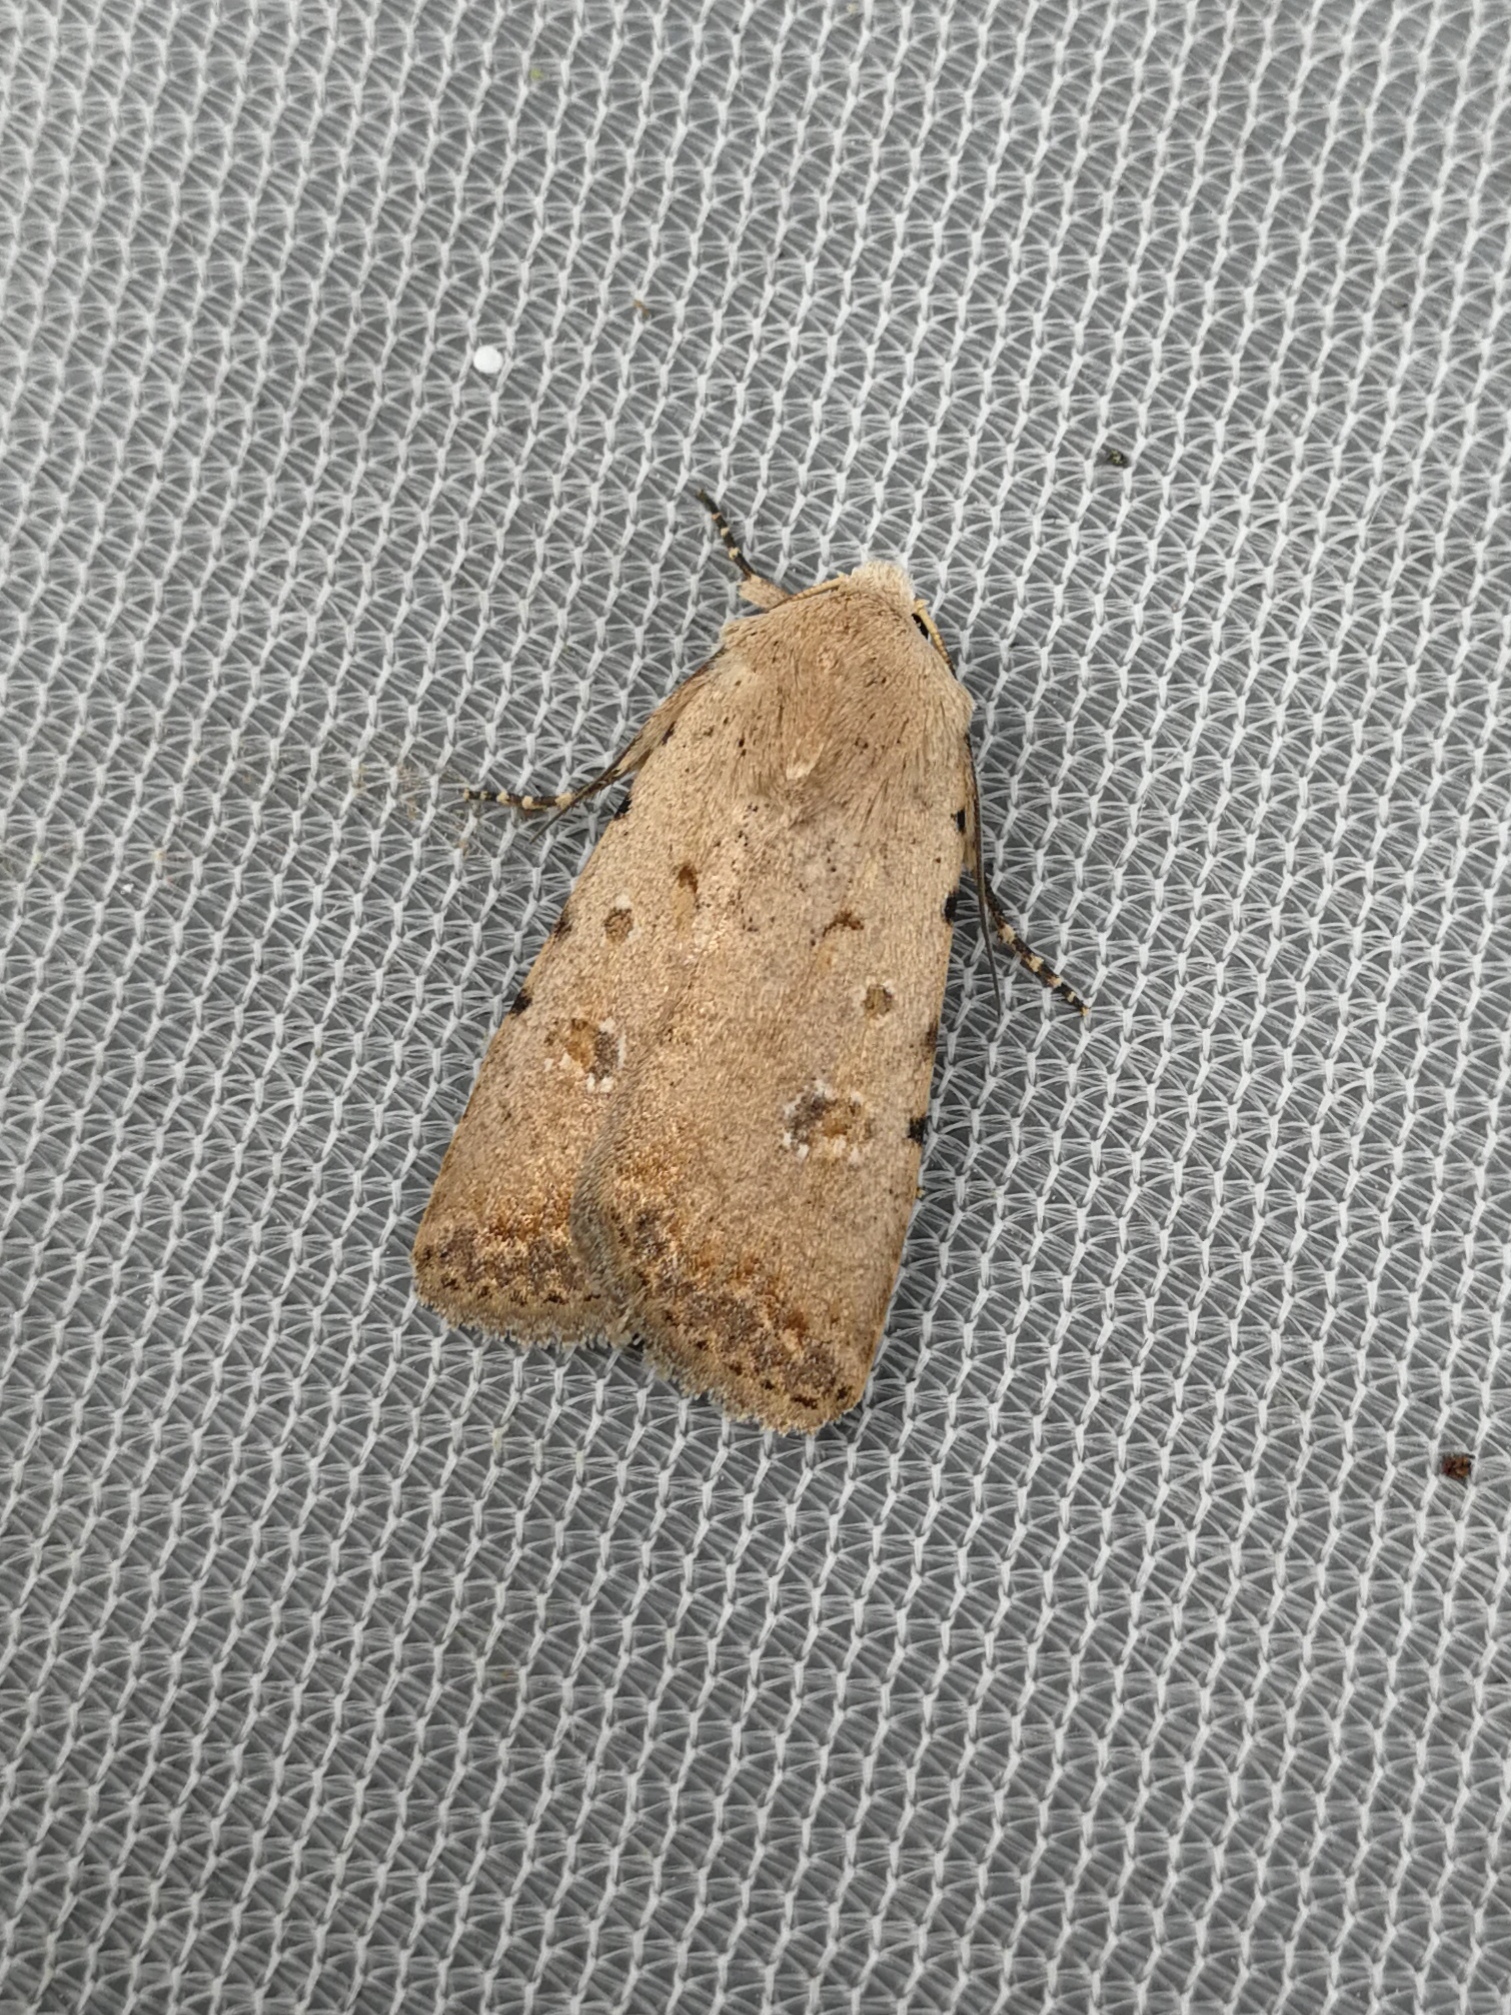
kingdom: Animalia
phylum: Arthropoda
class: Insecta
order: Lepidoptera
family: Noctuidae
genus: Caradrina
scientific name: Caradrina clavipalpis
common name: Pale mottled willow
